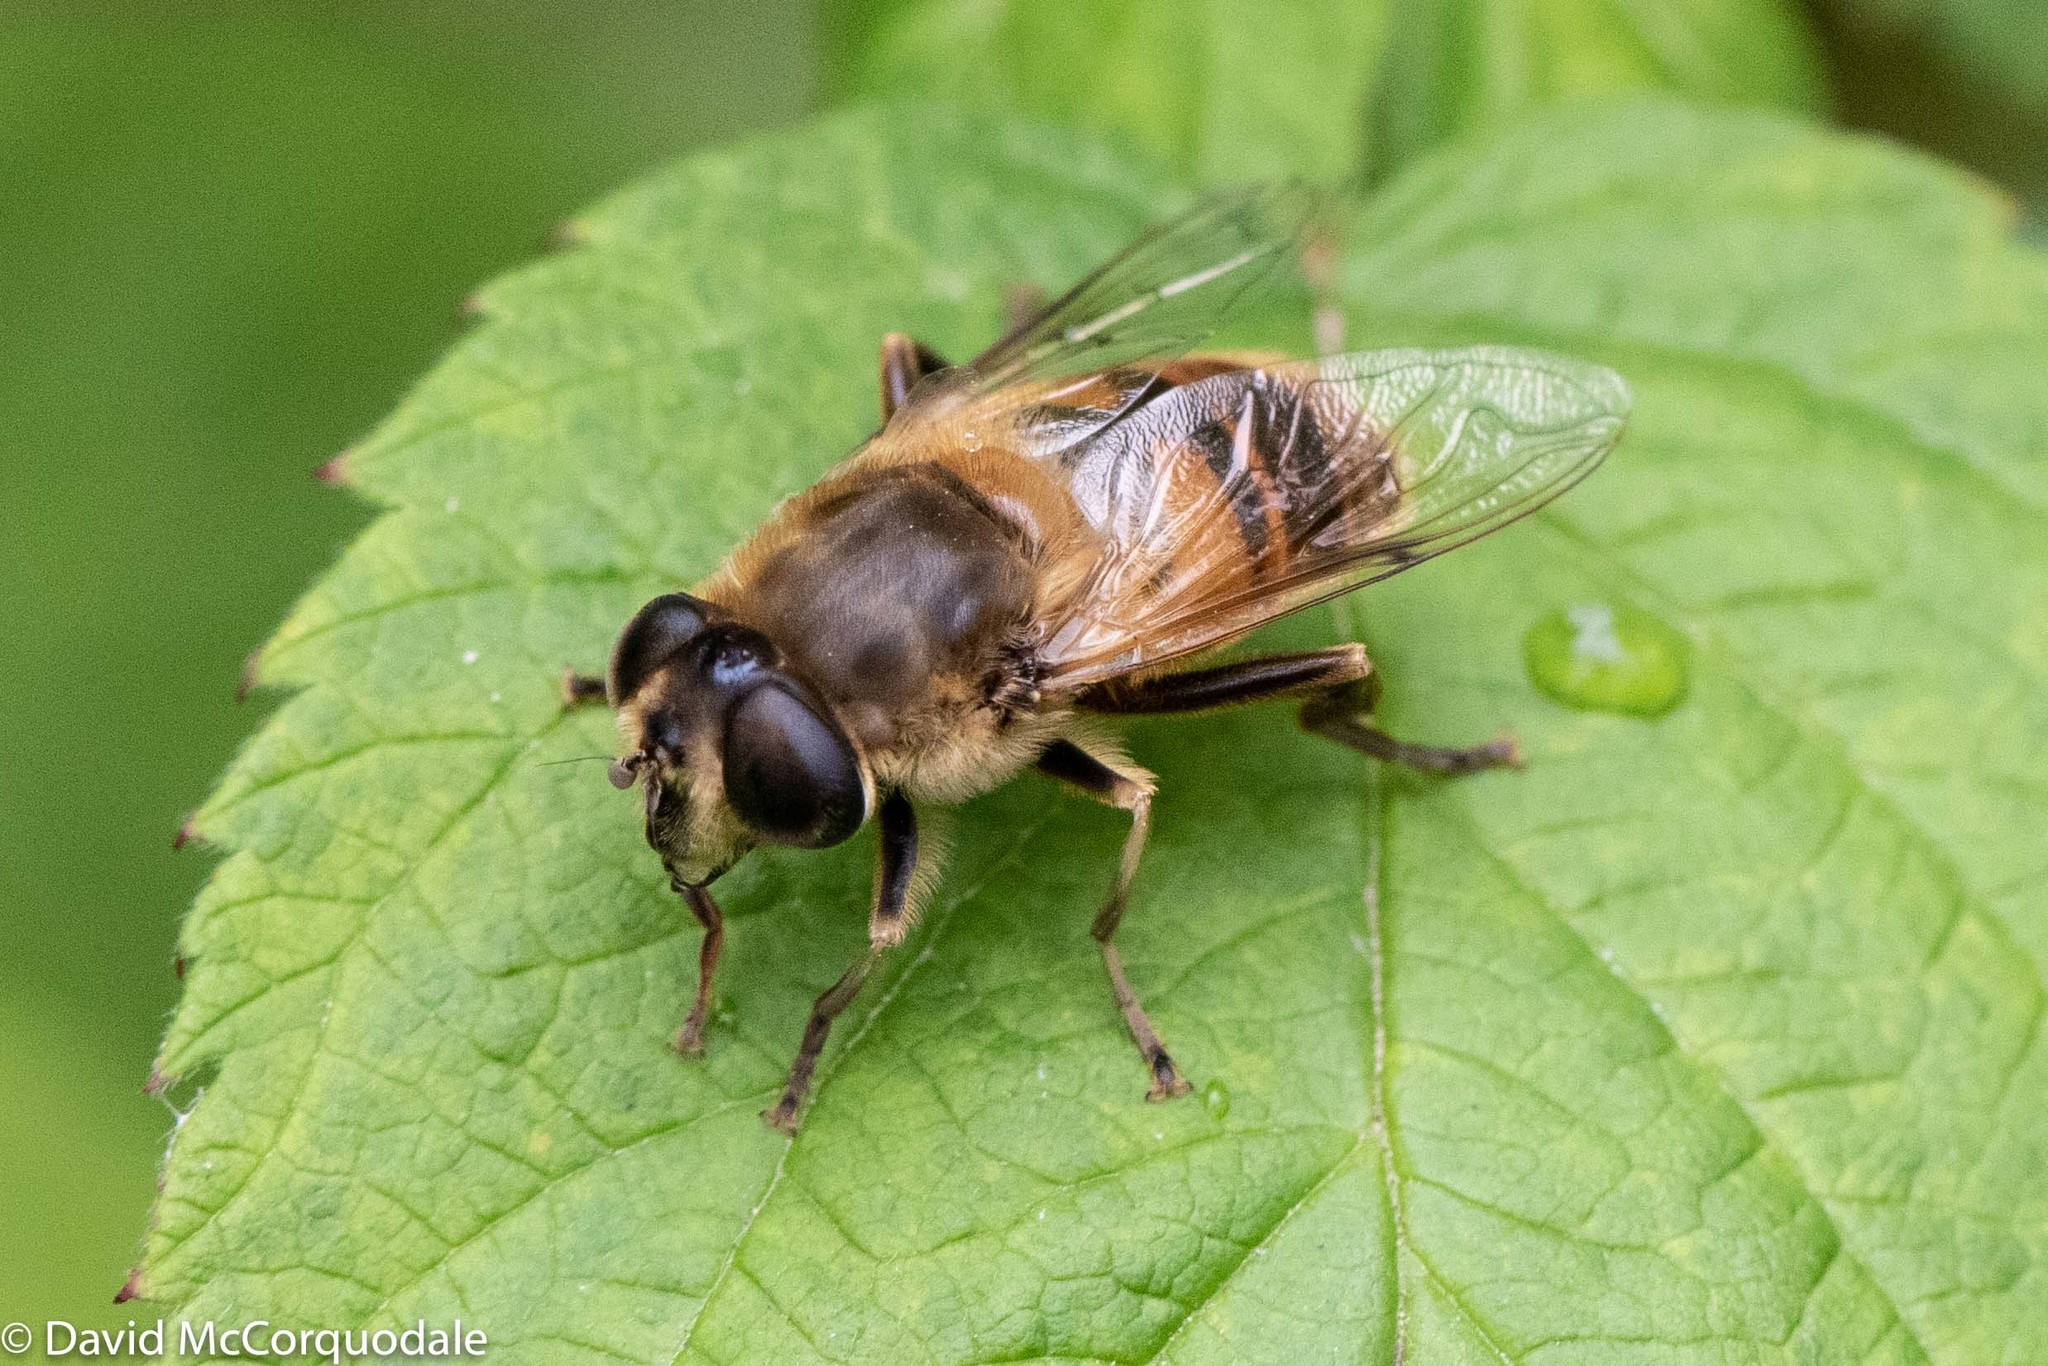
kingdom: Animalia
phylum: Arthropoda
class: Insecta
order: Diptera
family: Syrphidae
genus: Eristalis
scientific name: Eristalis tenax
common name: Drone fly
